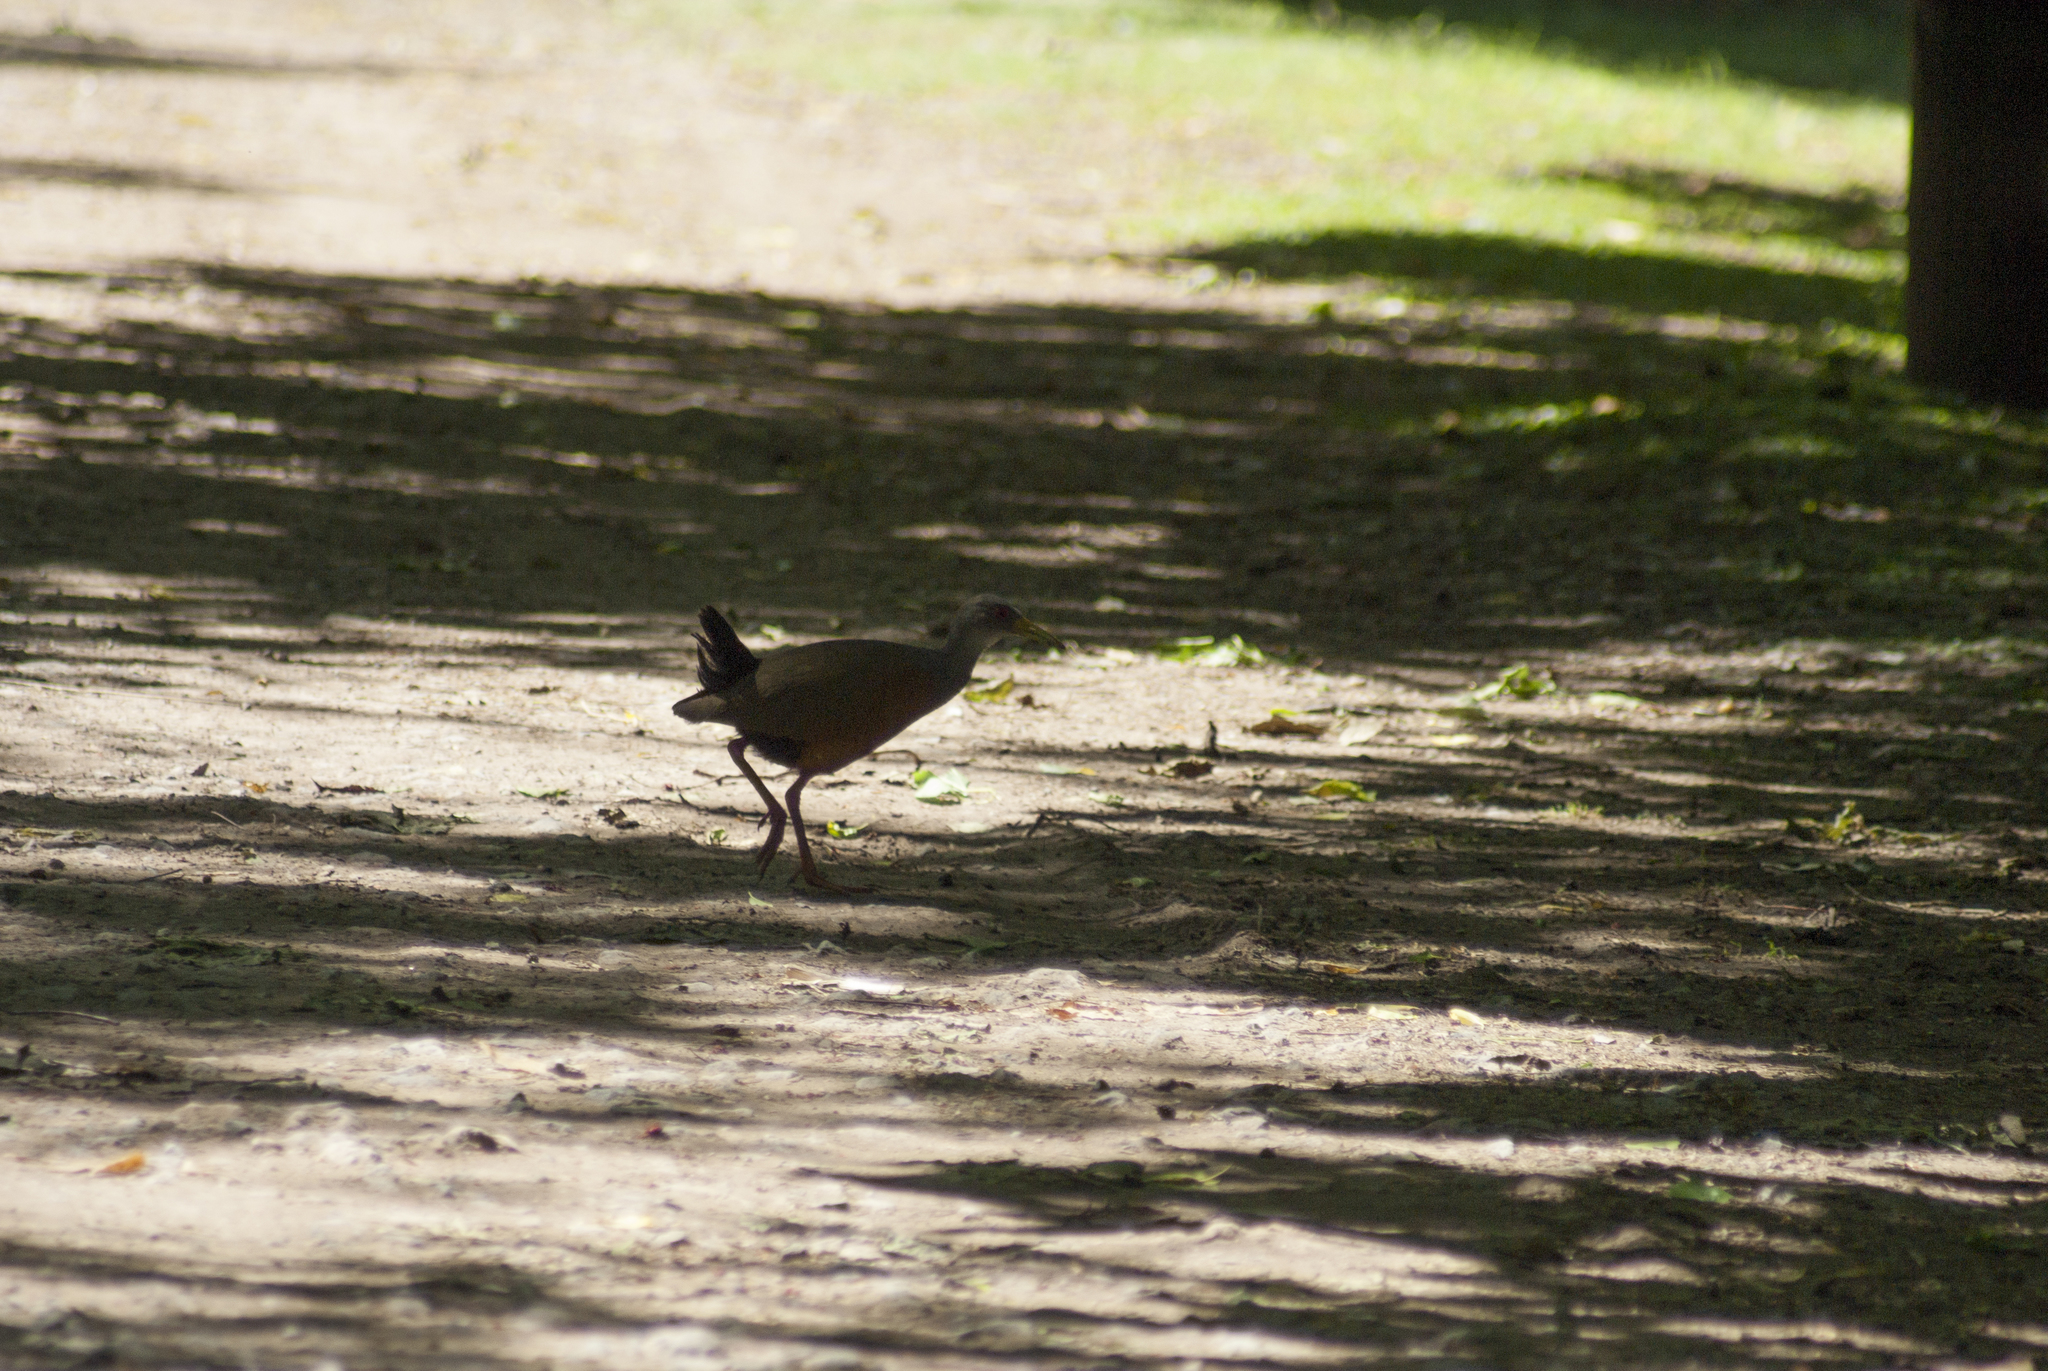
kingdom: Animalia
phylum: Chordata
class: Aves
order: Gruiformes
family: Rallidae
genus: Aramides
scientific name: Aramides cajanea
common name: Gray-necked wood-rail
